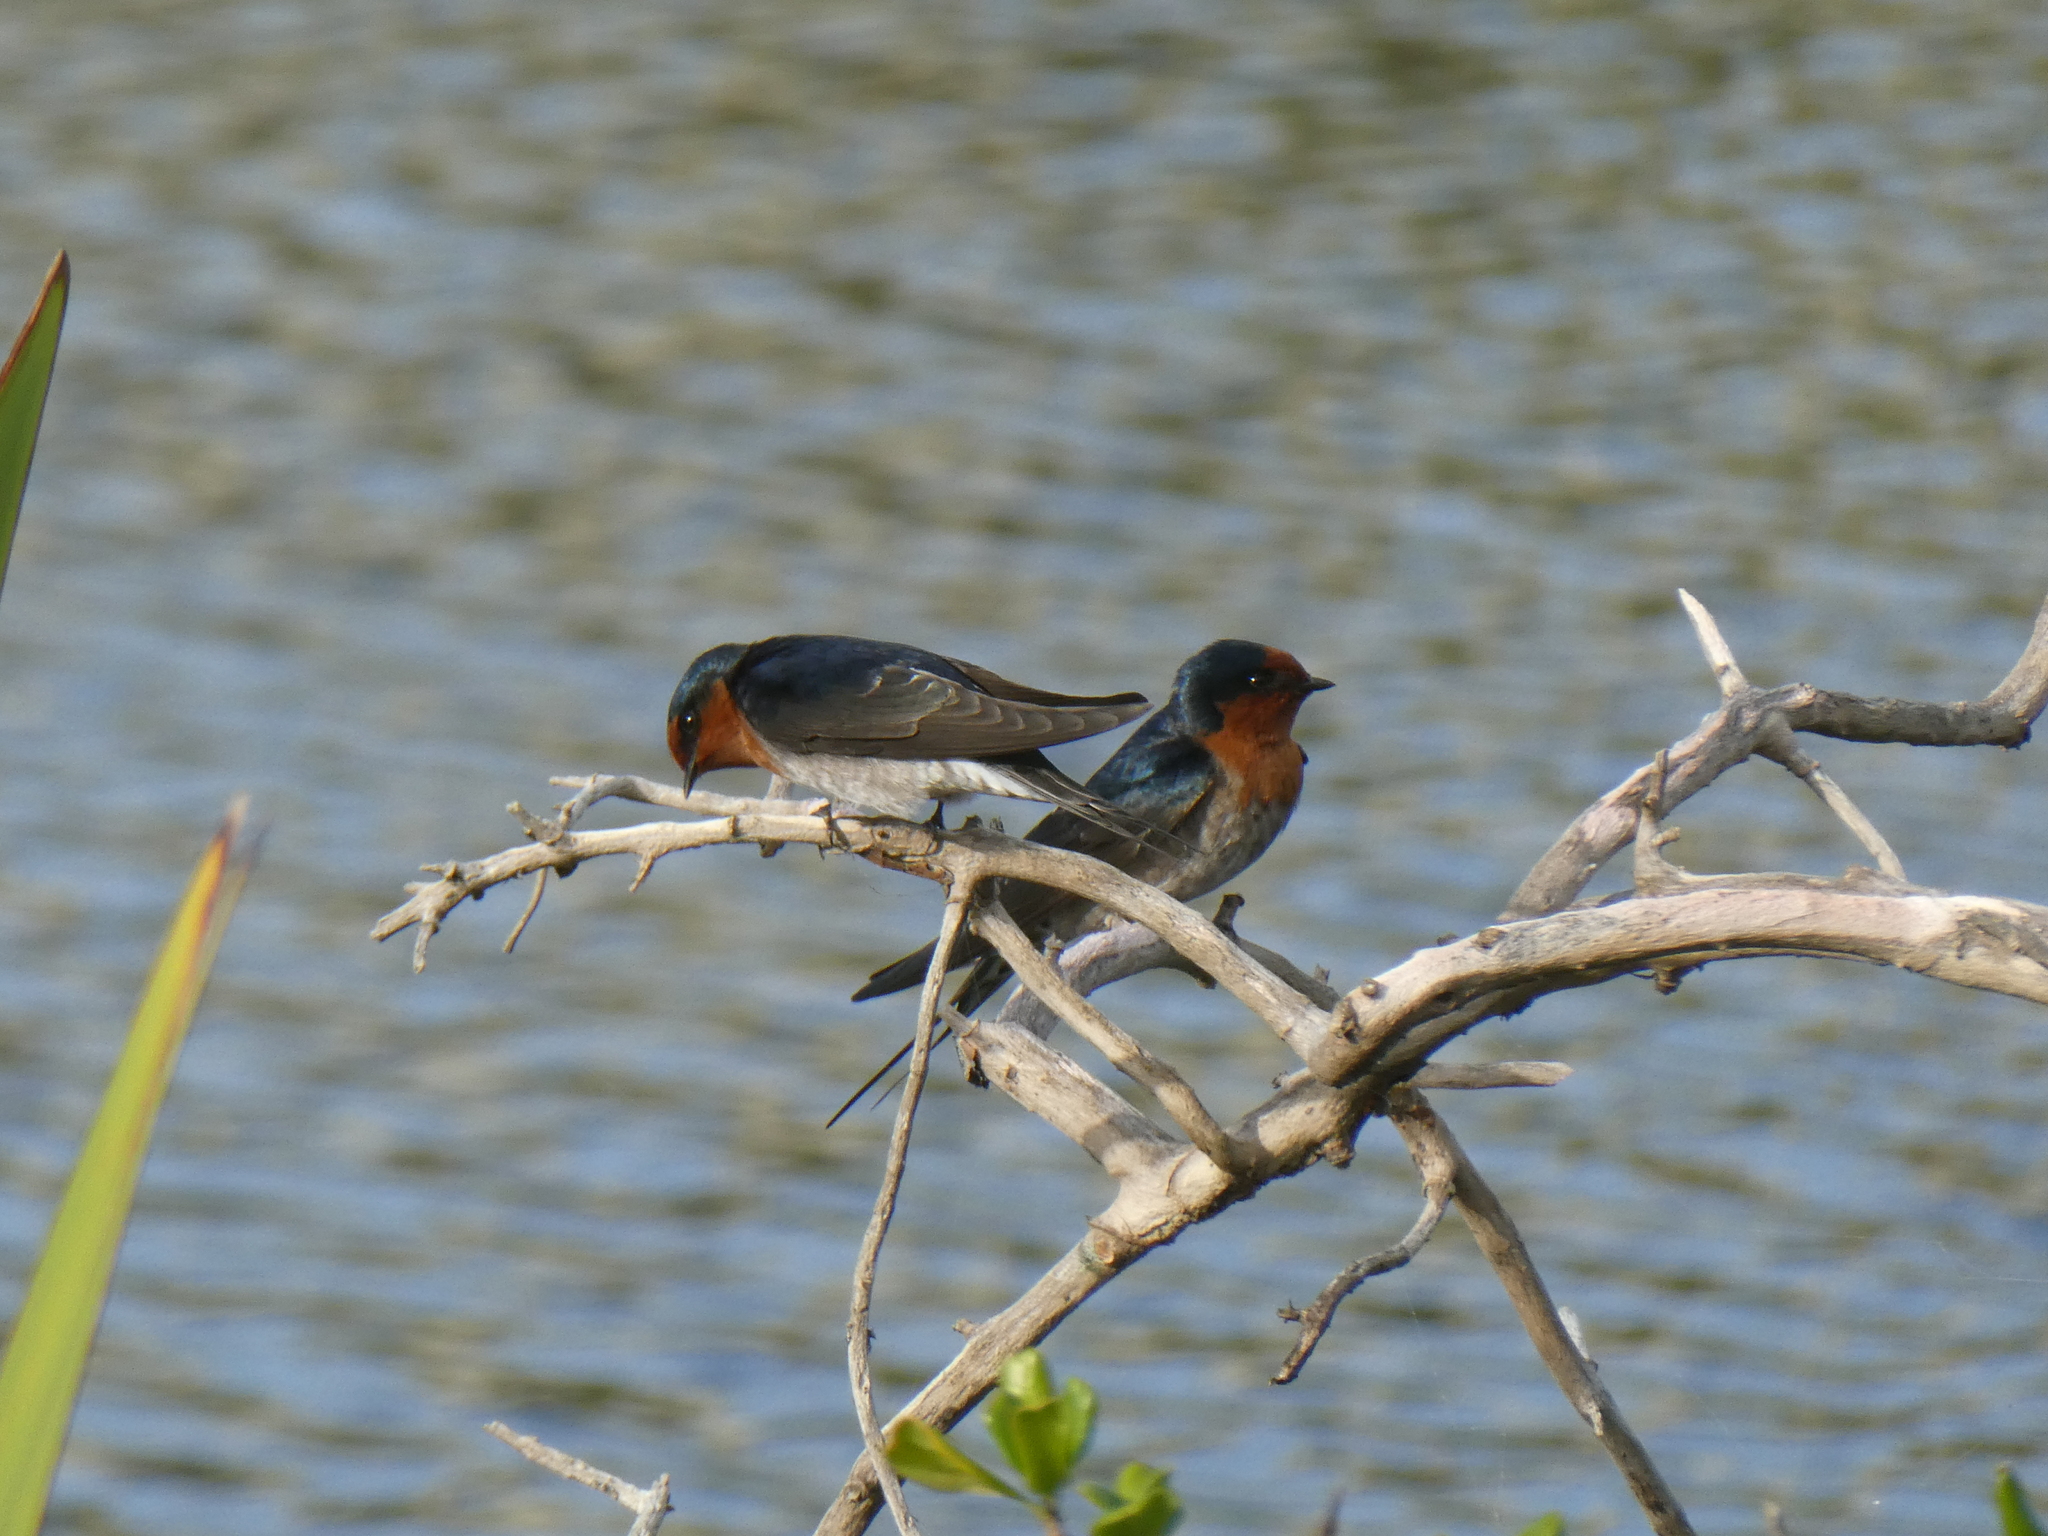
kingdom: Animalia
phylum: Chordata
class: Aves
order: Passeriformes
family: Hirundinidae
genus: Hirundo
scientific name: Hirundo neoxena
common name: Welcome swallow
